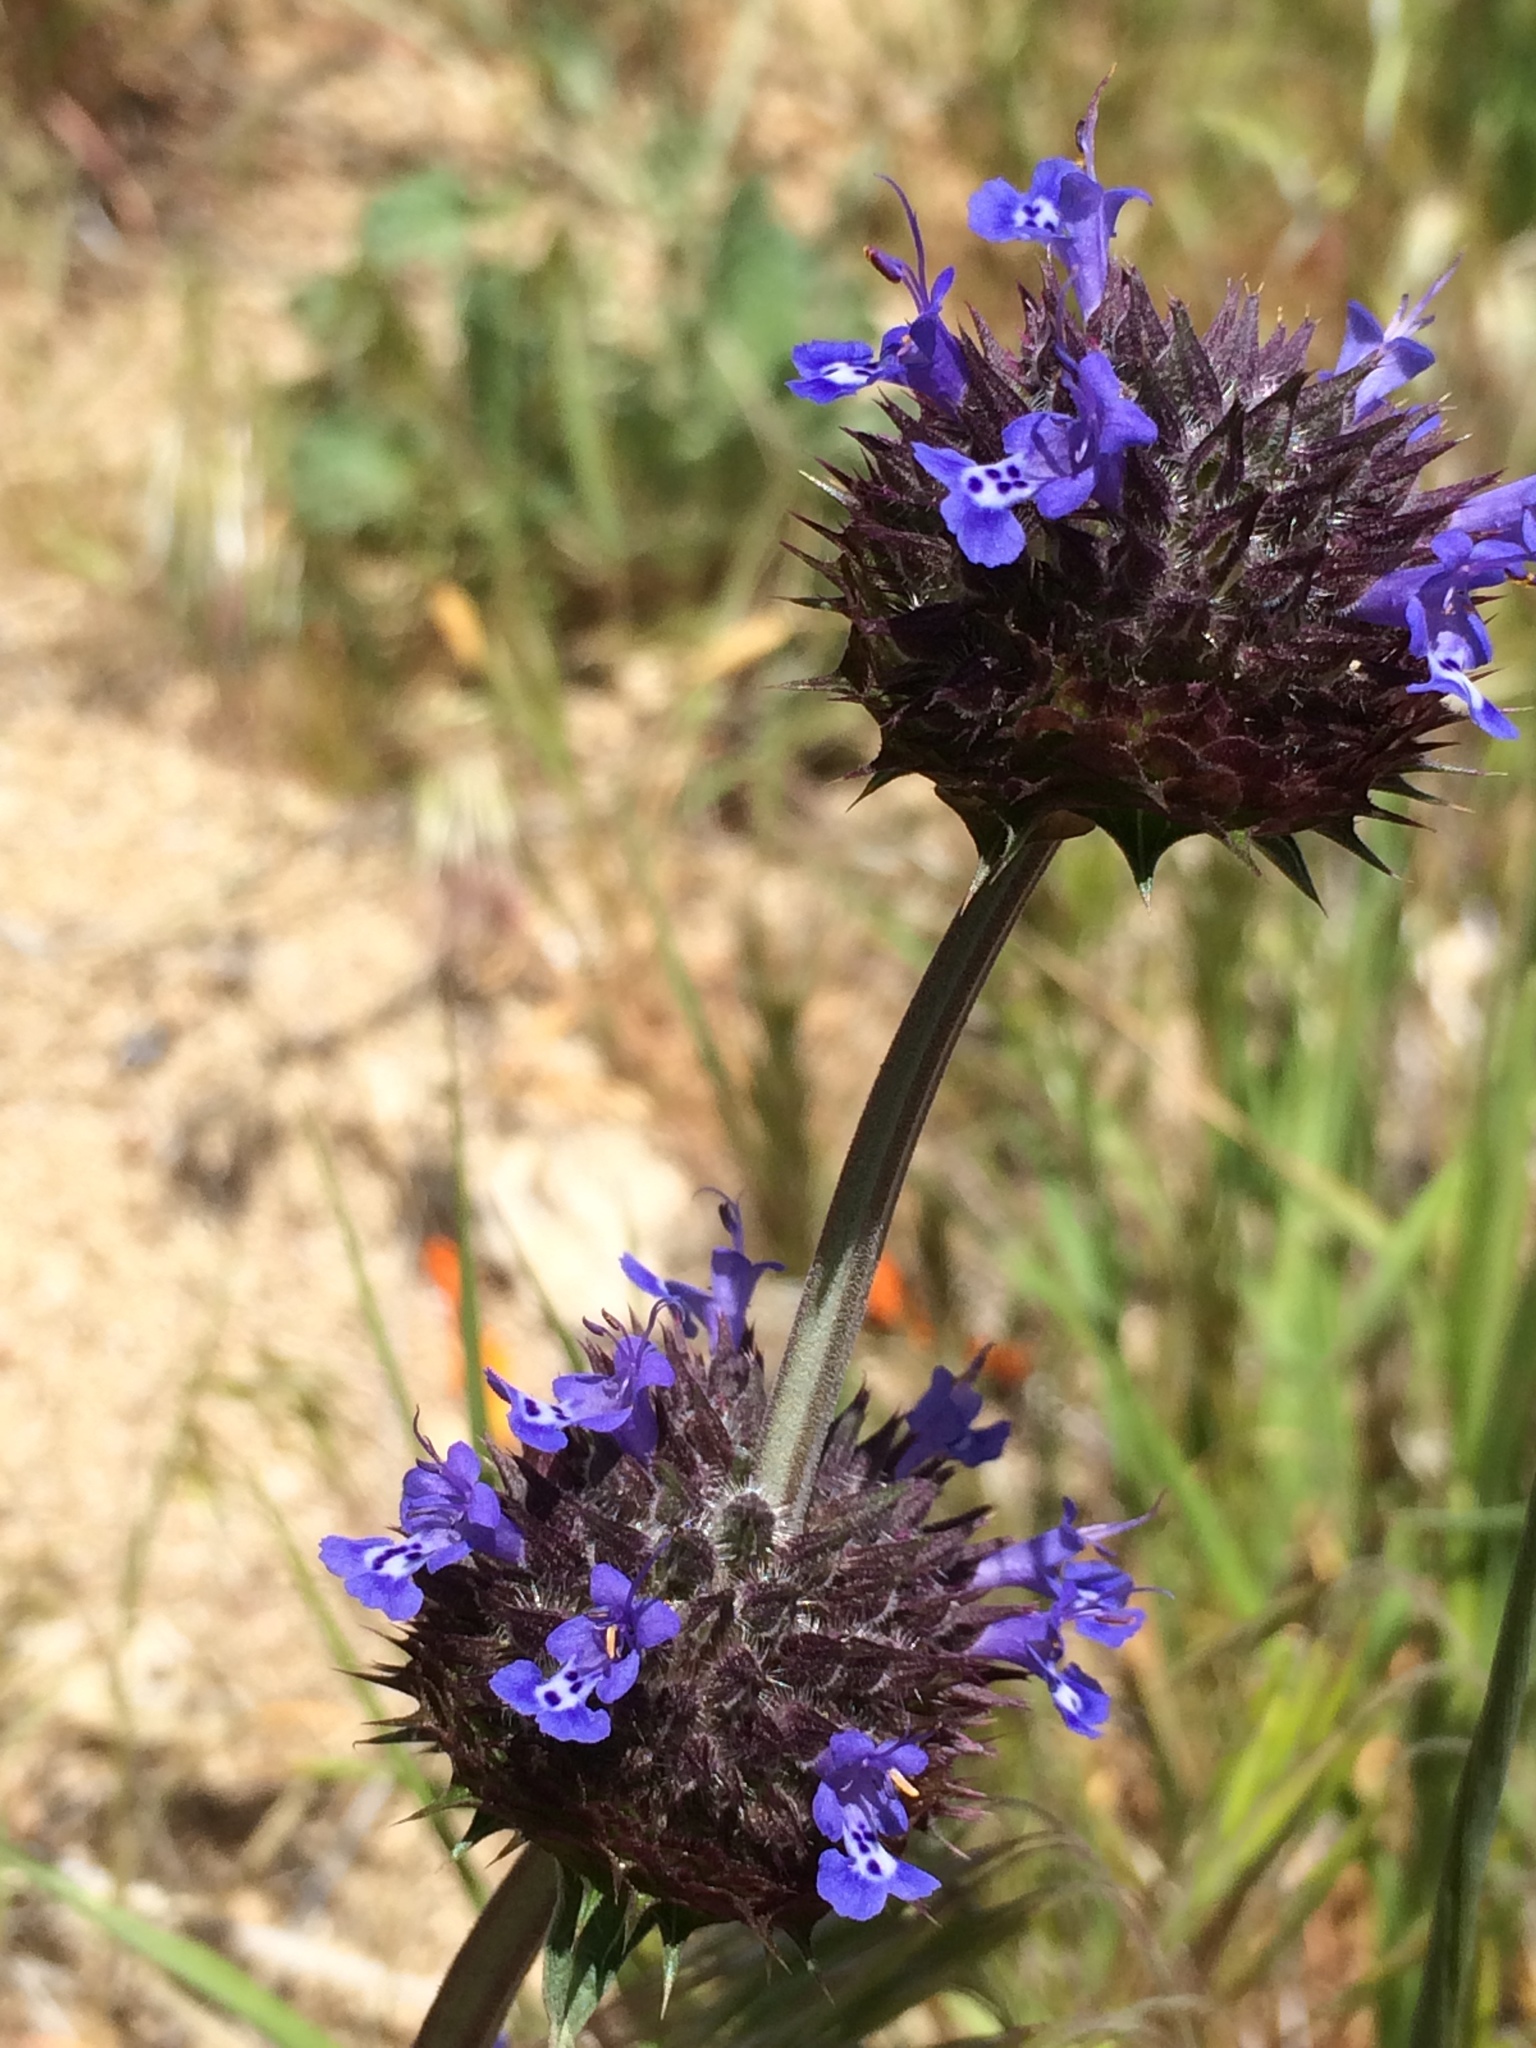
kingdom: Plantae
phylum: Tracheophyta
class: Magnoliopsida
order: Lamiales
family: Lamiaceae
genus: Salvia
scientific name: Salvia columbariae
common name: Chia
